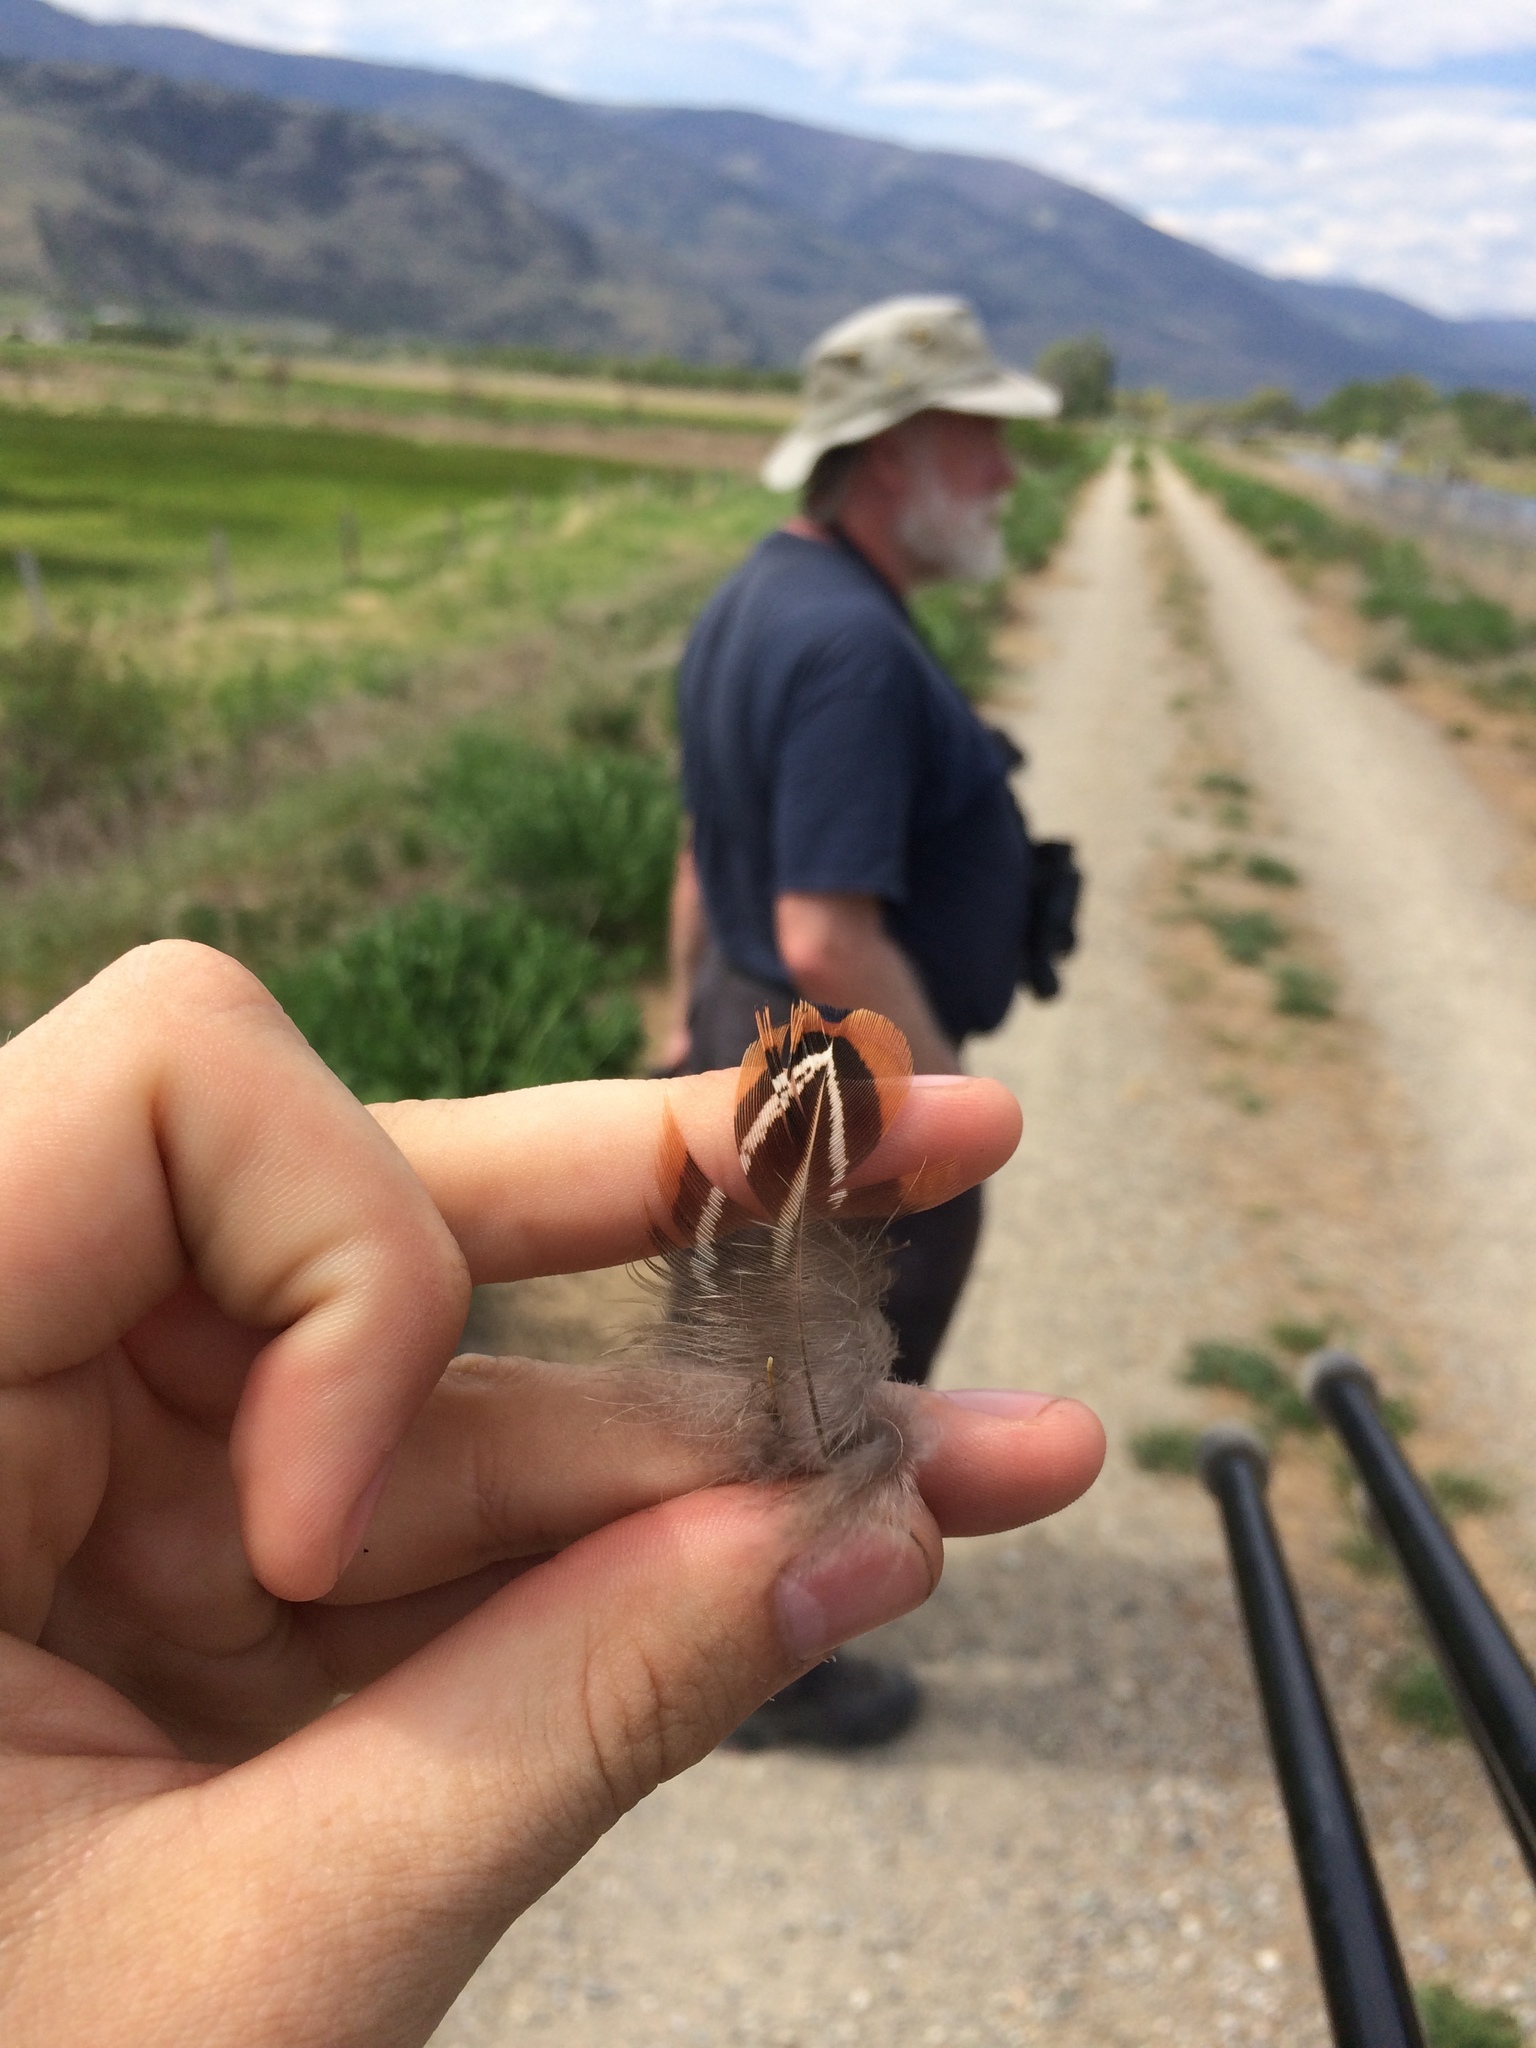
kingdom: Animalia
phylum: Chordata
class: Aves
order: Galliformes
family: Phasianidae
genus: Phasianus
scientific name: Phasianus colchicus
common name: Common pheasant
